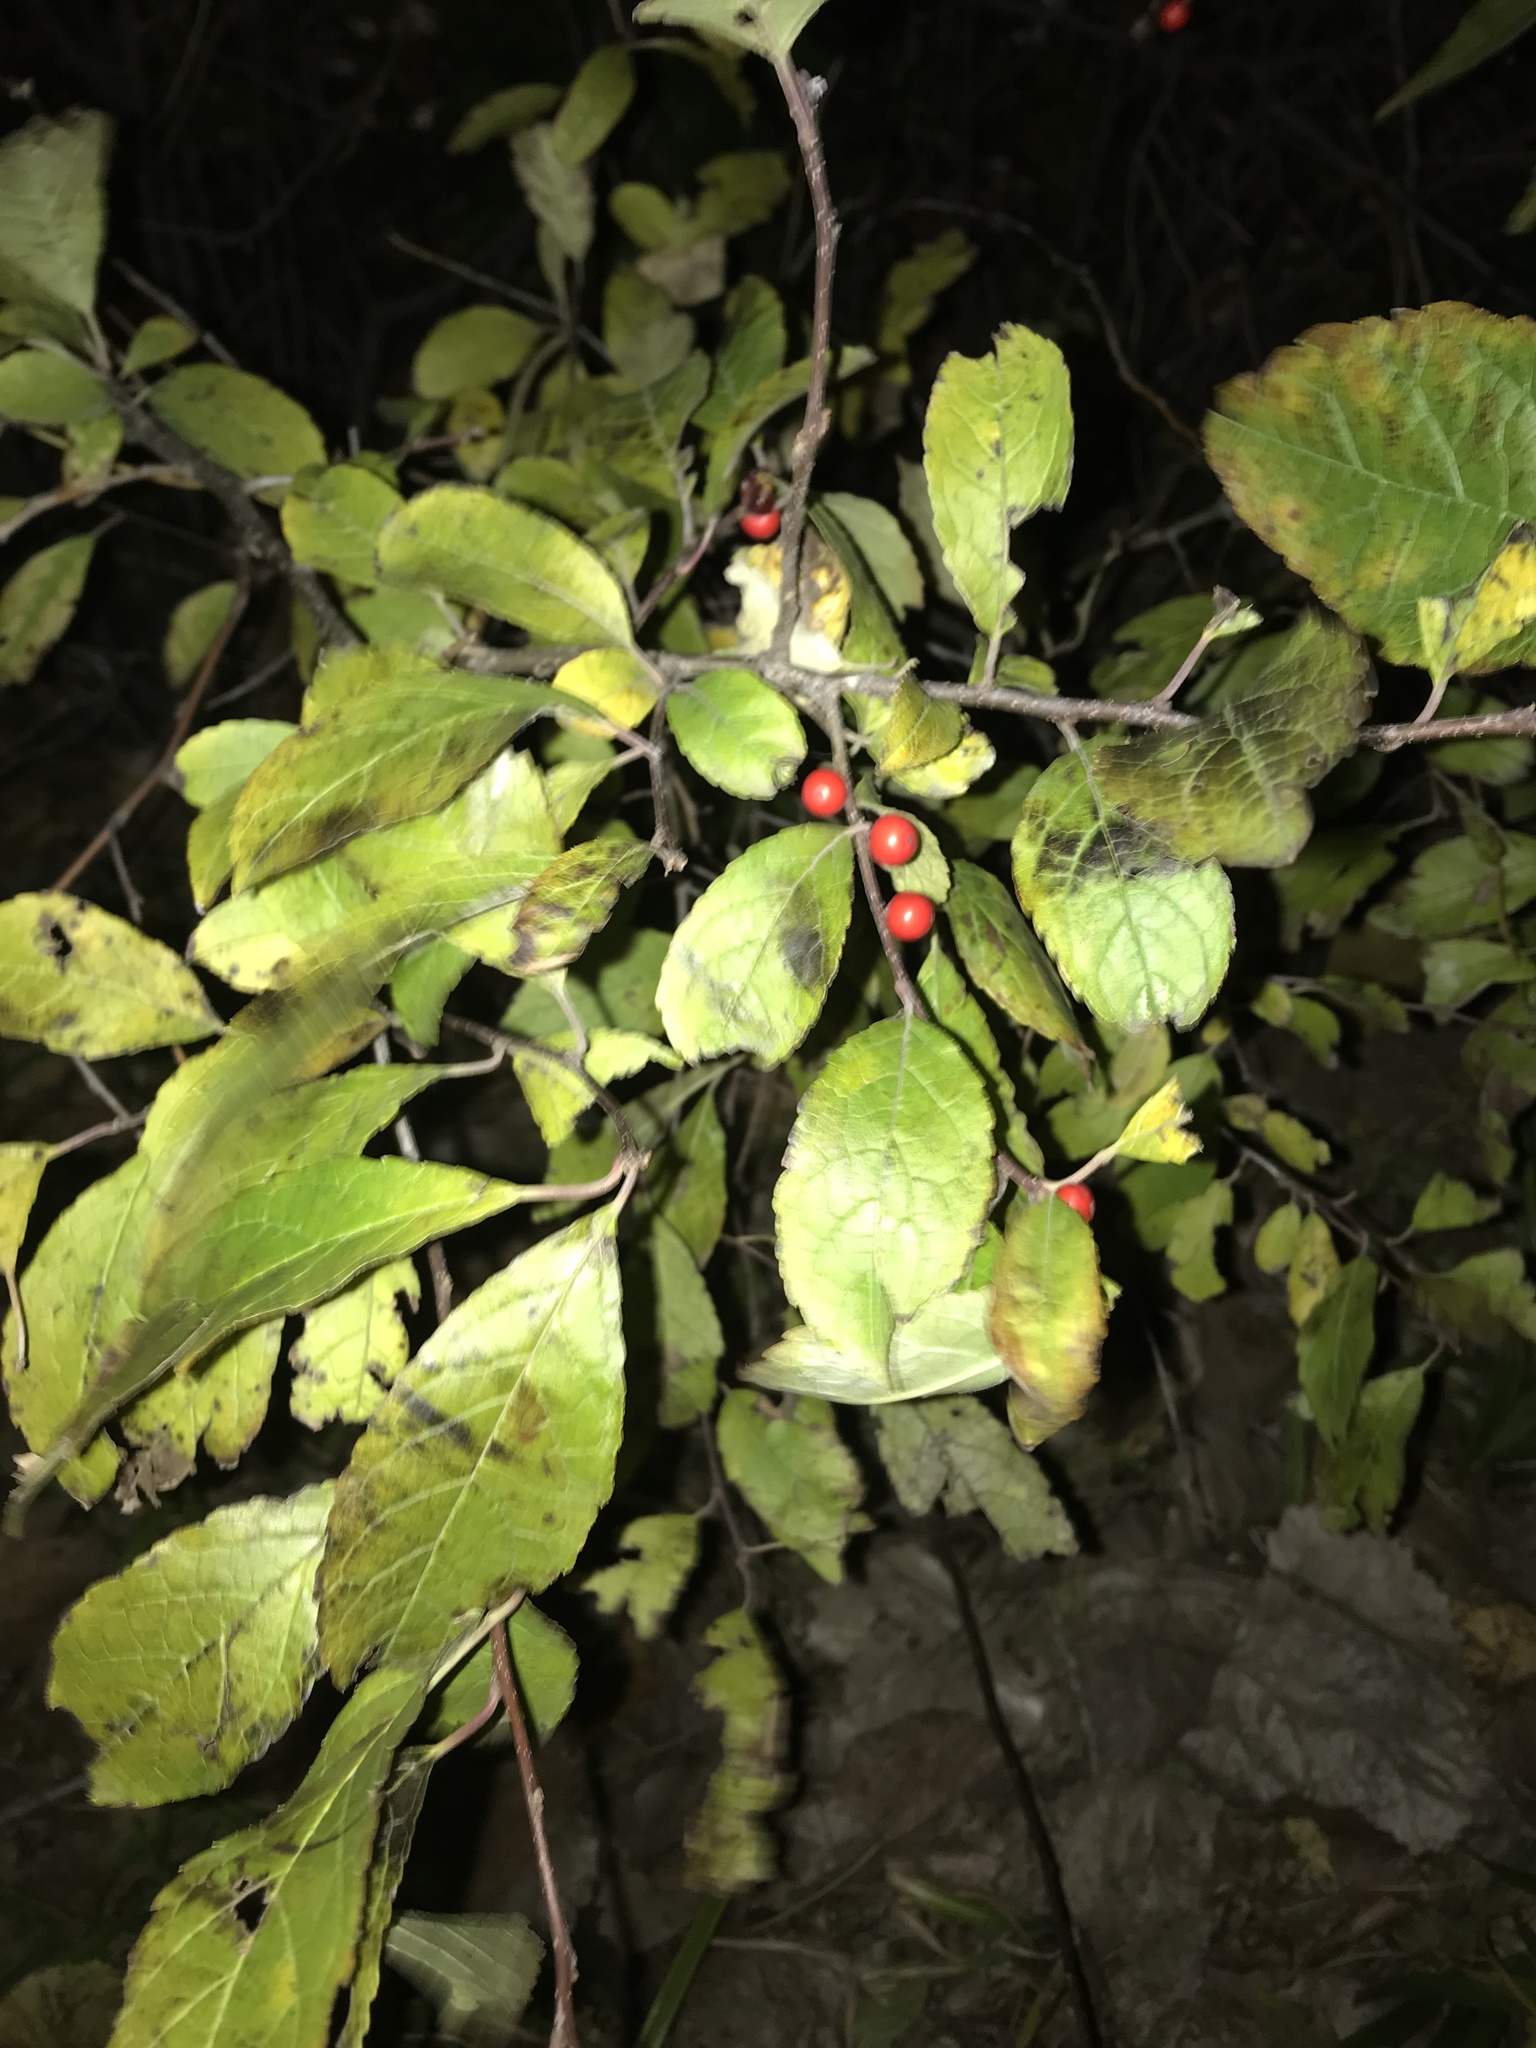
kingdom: Plantae
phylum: Tracheophyta
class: Magnoliopsida
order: Aquifoliales
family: Aquifoliaceae
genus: Ilex
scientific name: Ilex verticillata
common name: Virginia winterberry
